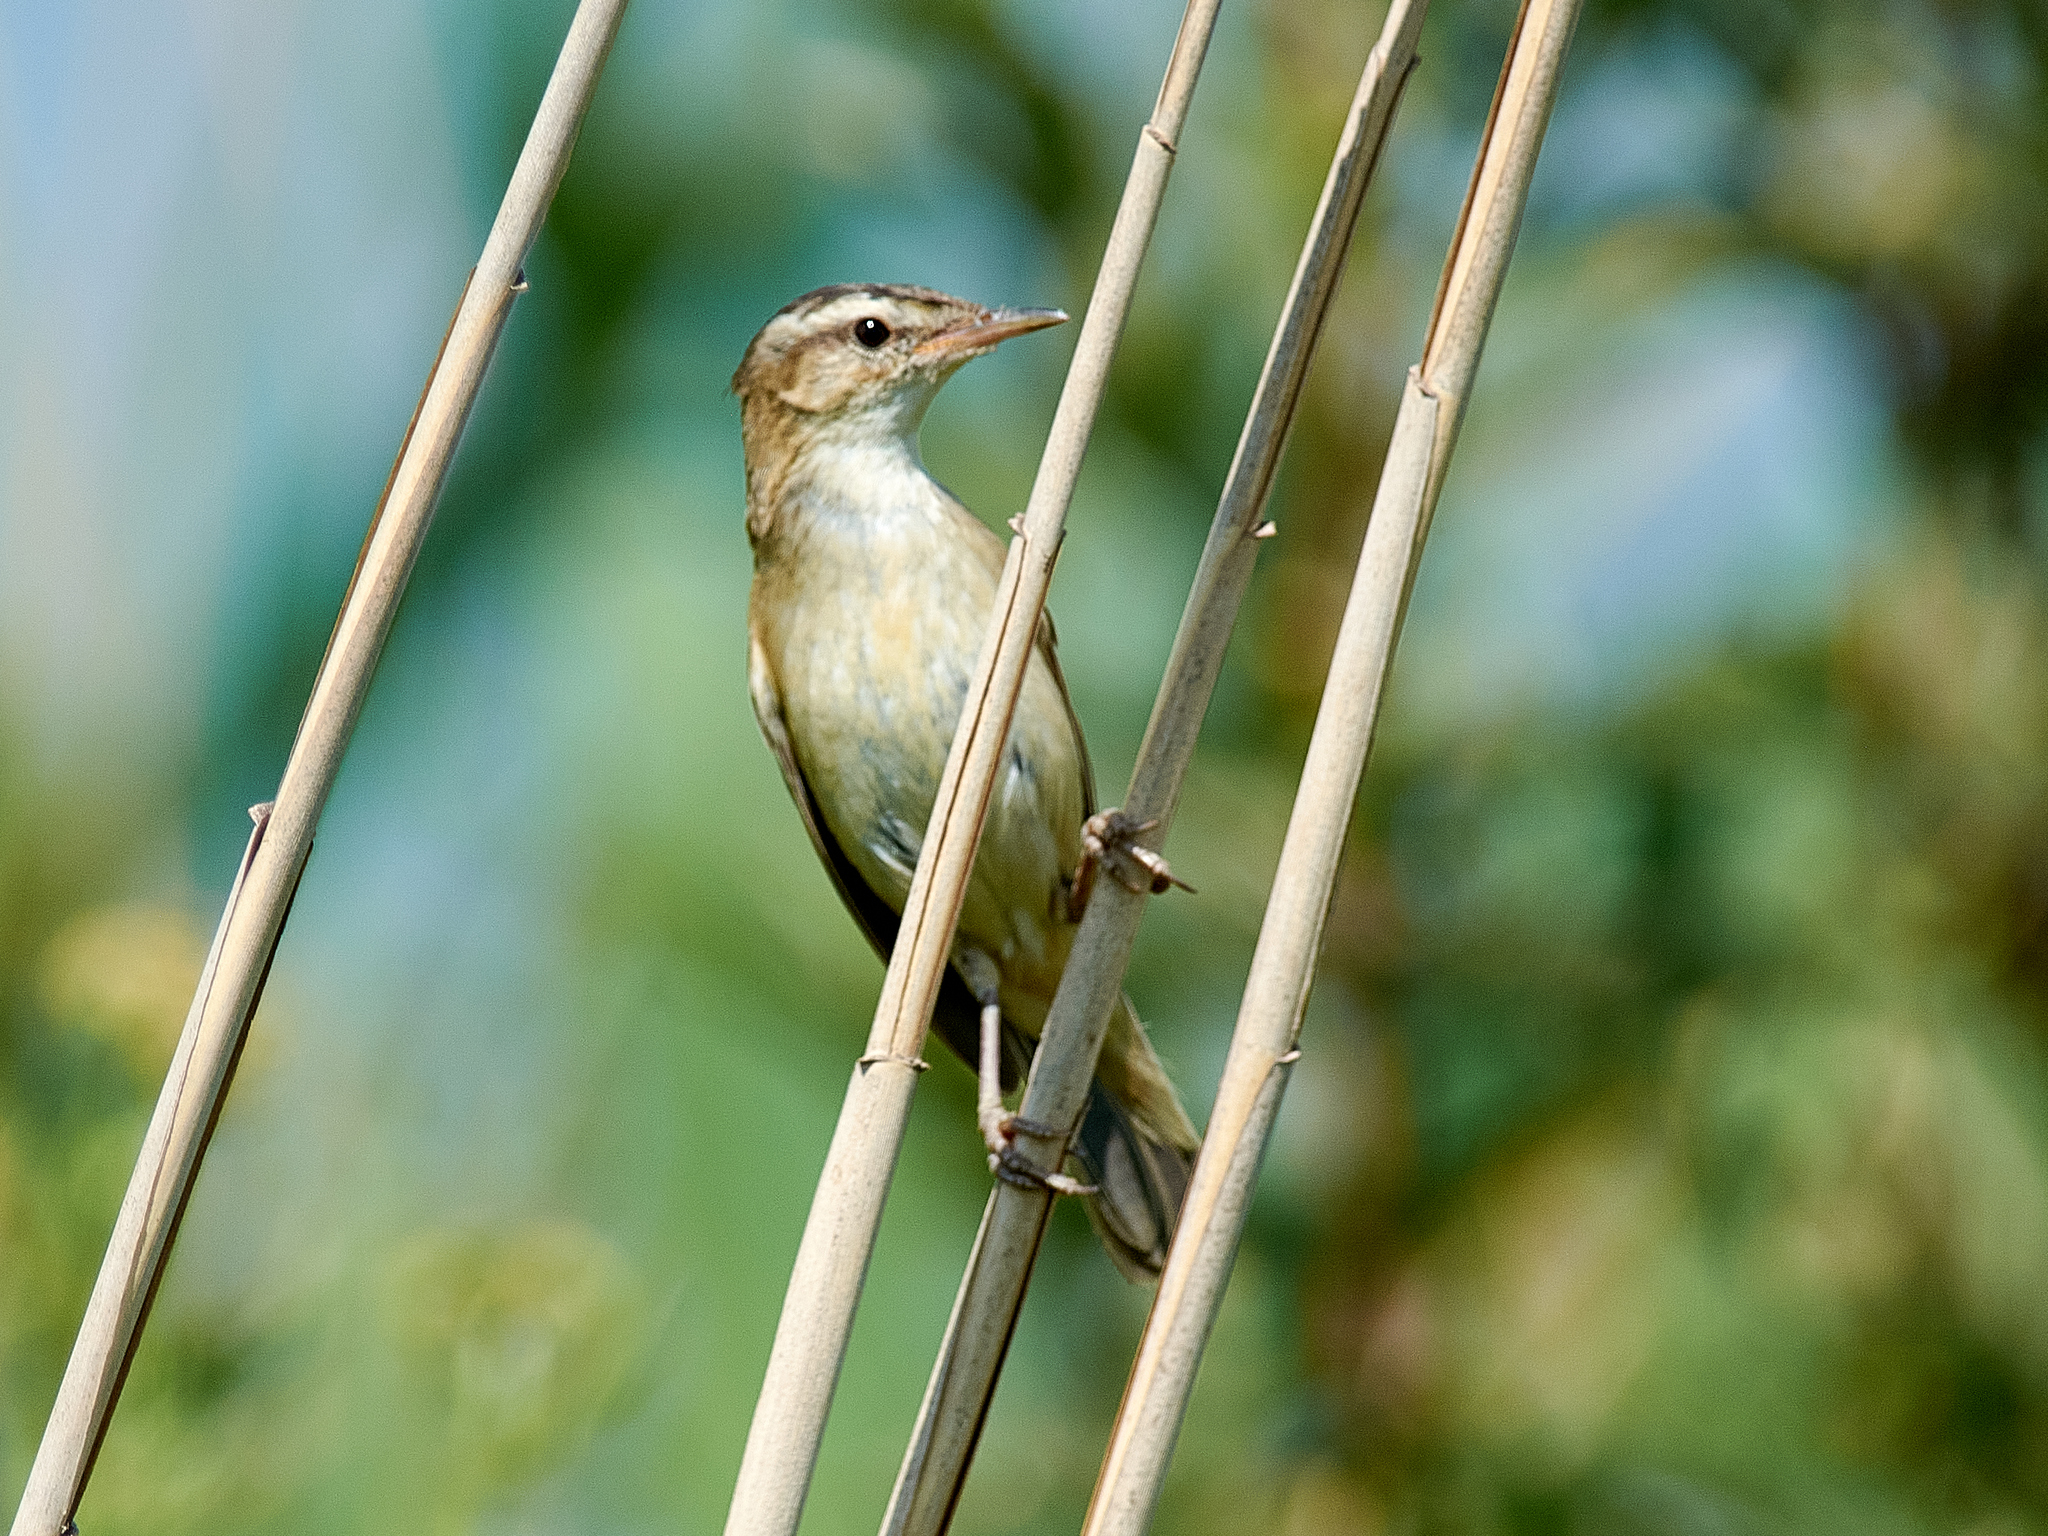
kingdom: Animalia
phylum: Chordata
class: Aves
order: Passeriformes
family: Acrocephalidae
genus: Acrocephalus
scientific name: Acrocephalus schoenobaenus
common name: Sedge warbler
